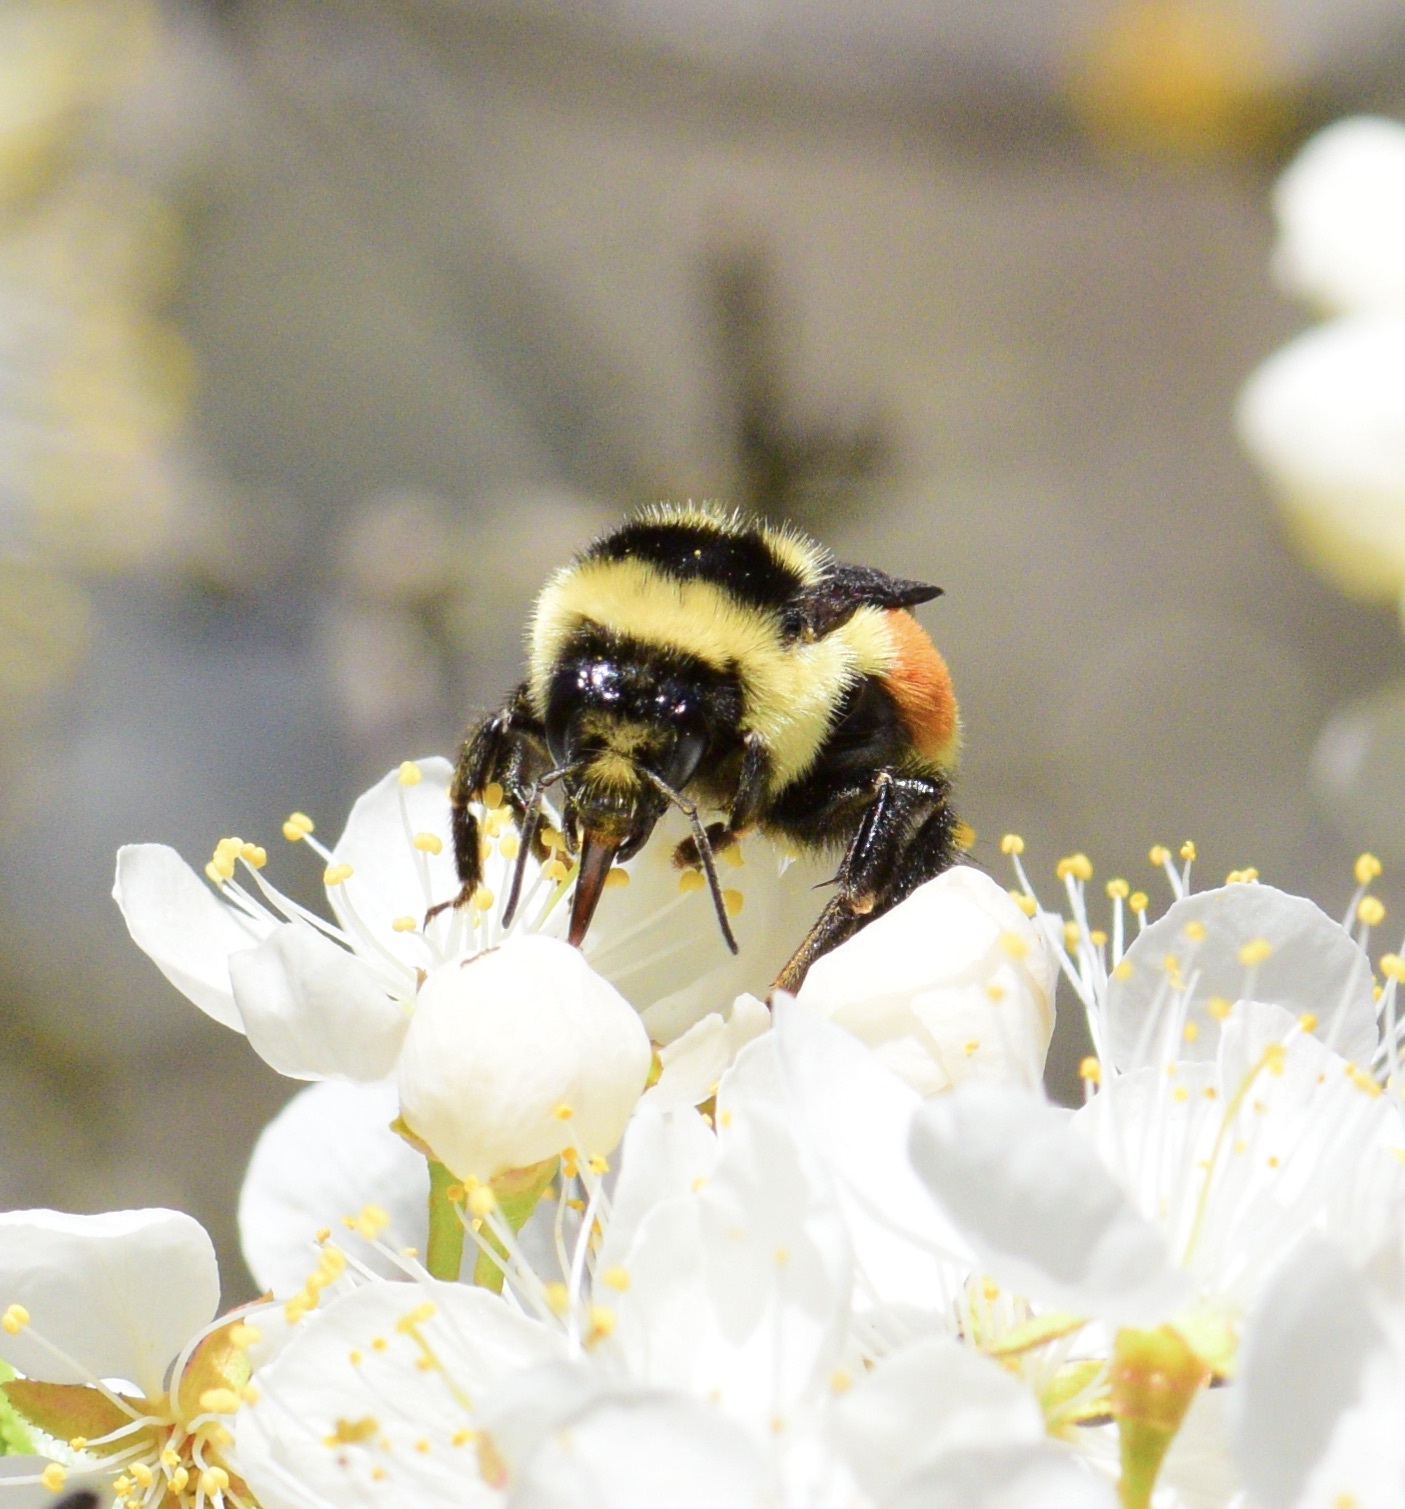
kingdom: Animalia
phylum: Arthropoda
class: Insecta
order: Hymenoptera
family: Apidae
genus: Bombus
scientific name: Bombus ternarius
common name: Tri-colored bumble bee
